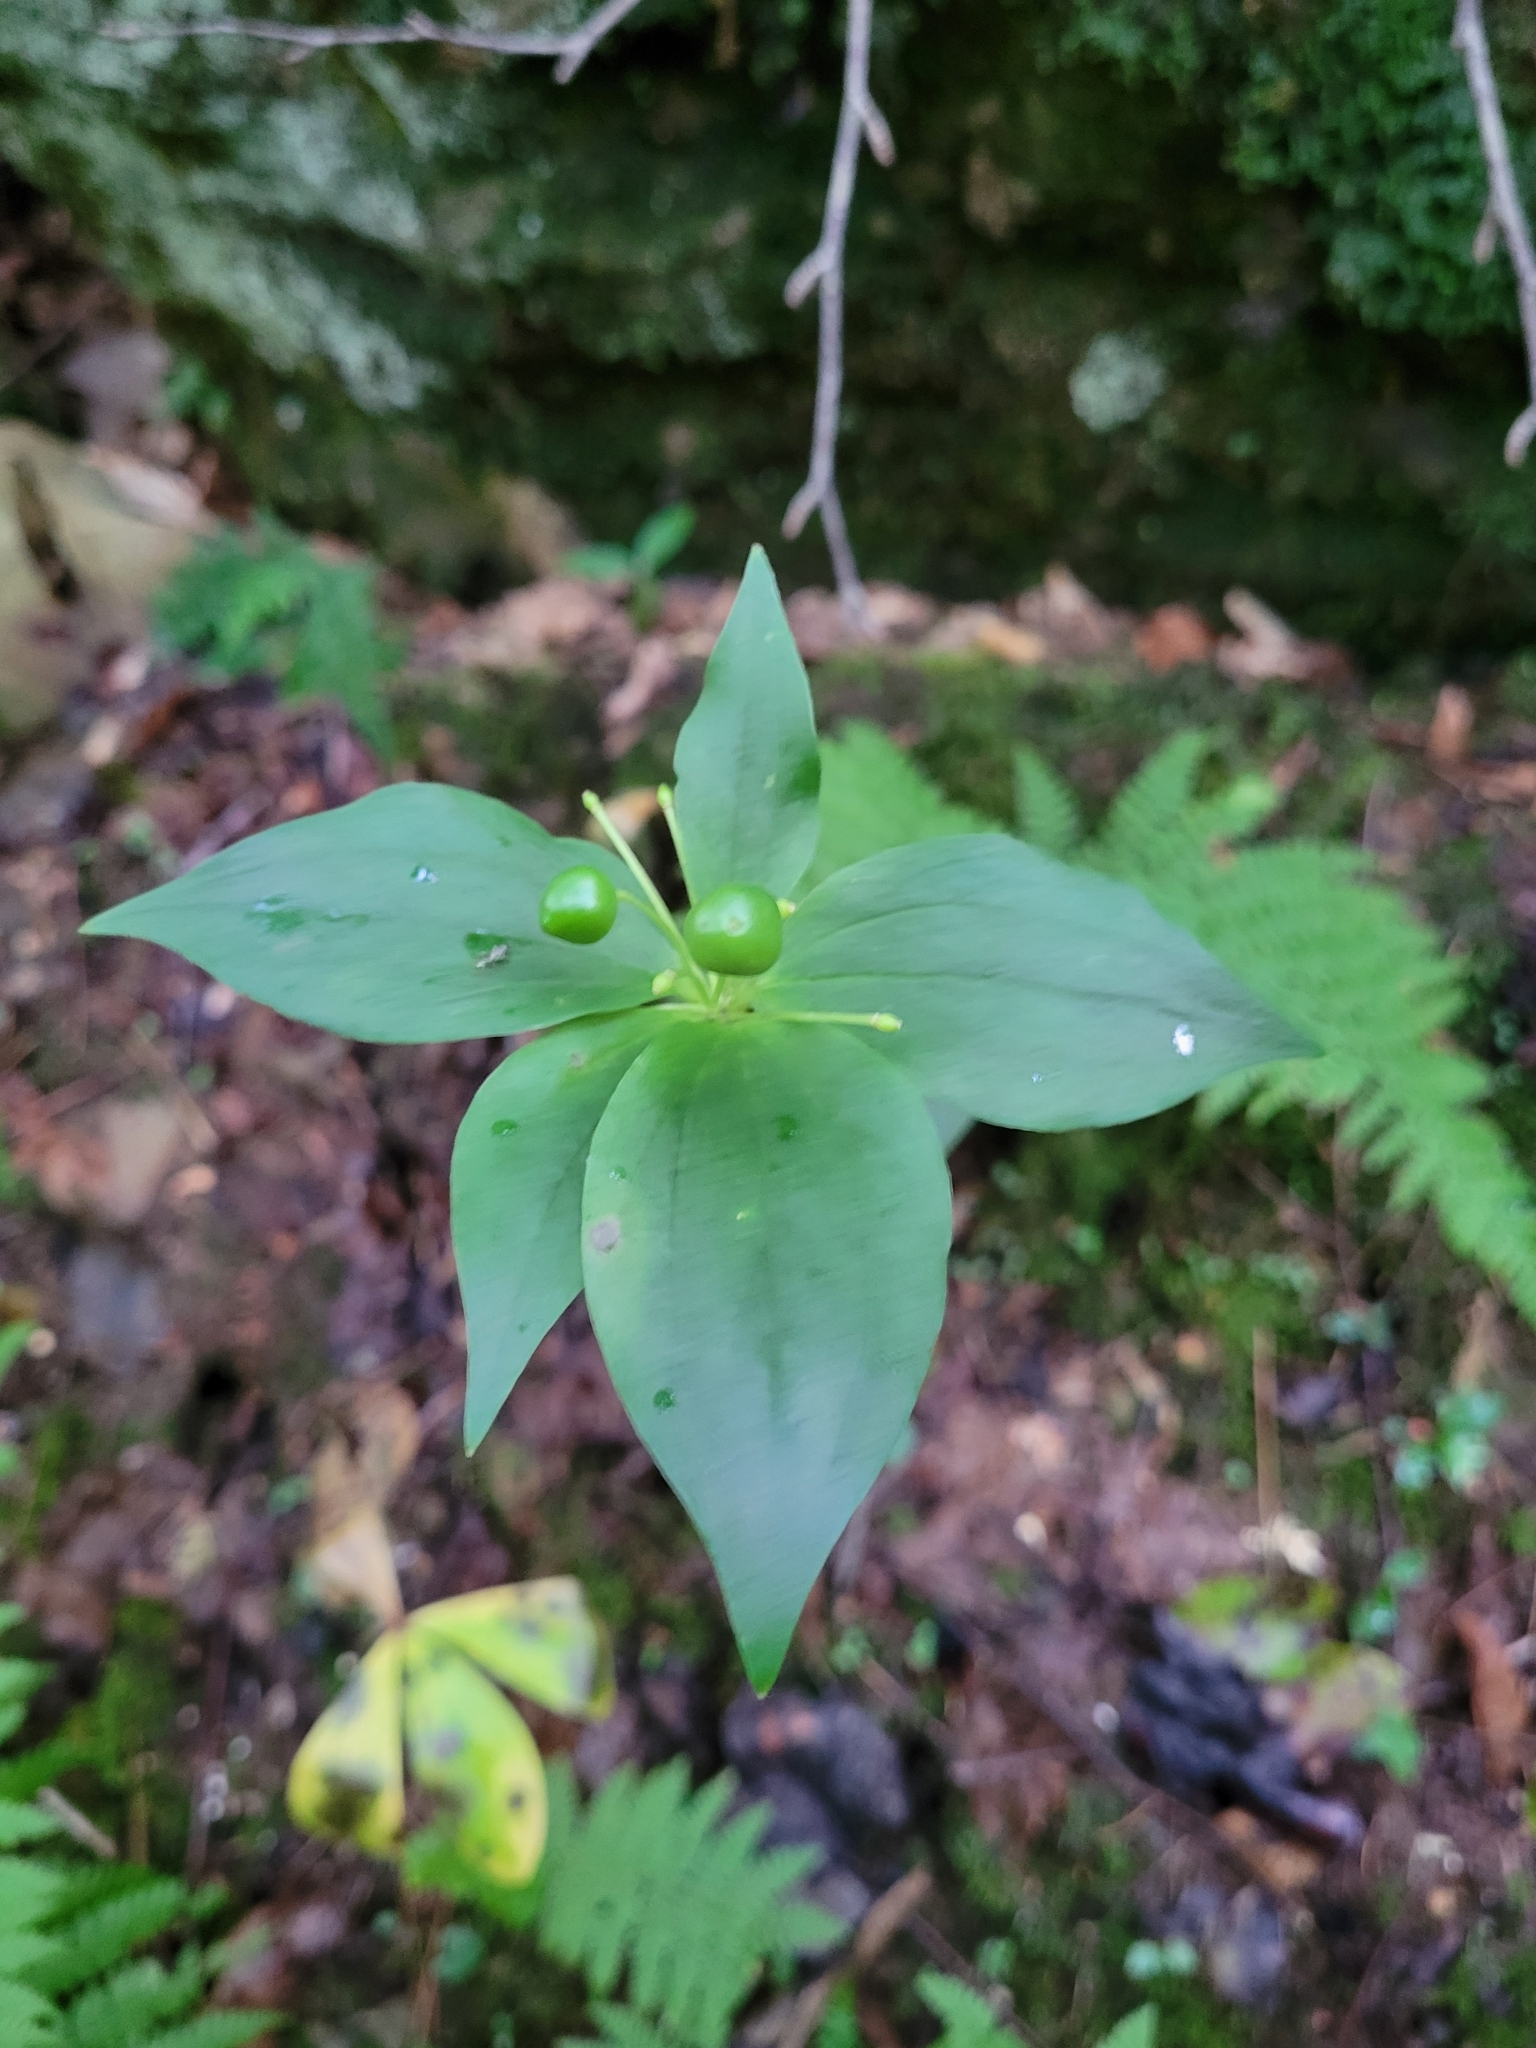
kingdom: Plantae
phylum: Tracheophyta
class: Liliopsida
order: Liliales
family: Liliaceae
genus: Medeola
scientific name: Medeola virginiana
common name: Indian cucumber-root
